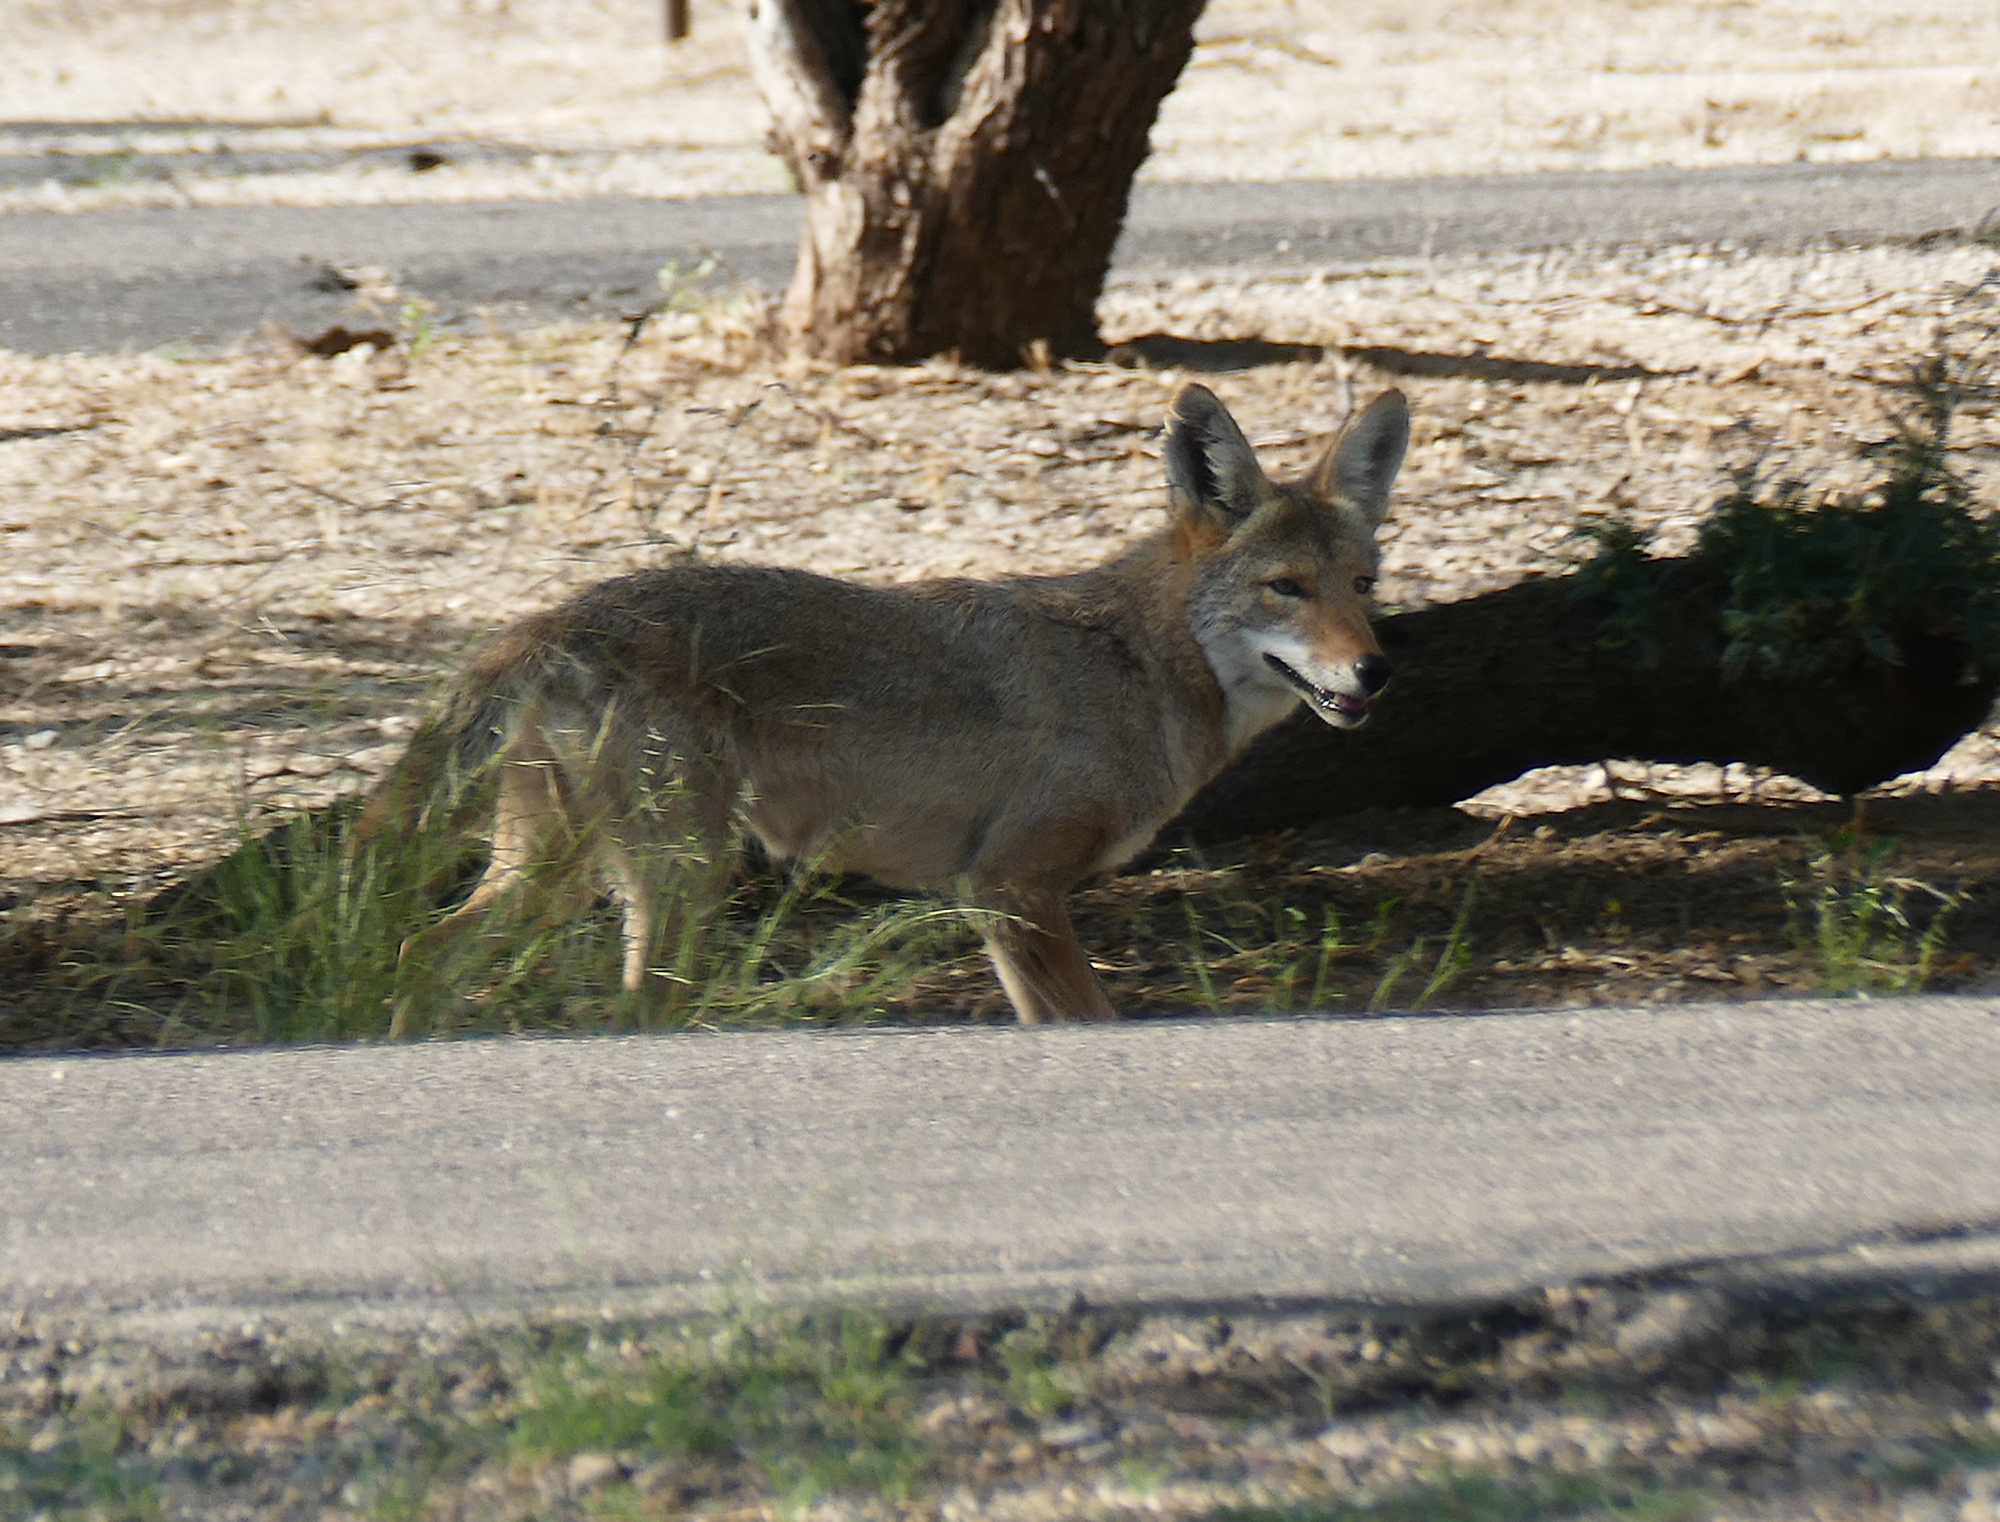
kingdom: Animalia
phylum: Chordata
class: Mammalia
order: Carnivora
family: Canidae
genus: Canis
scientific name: Canis latrans
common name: Coyote
